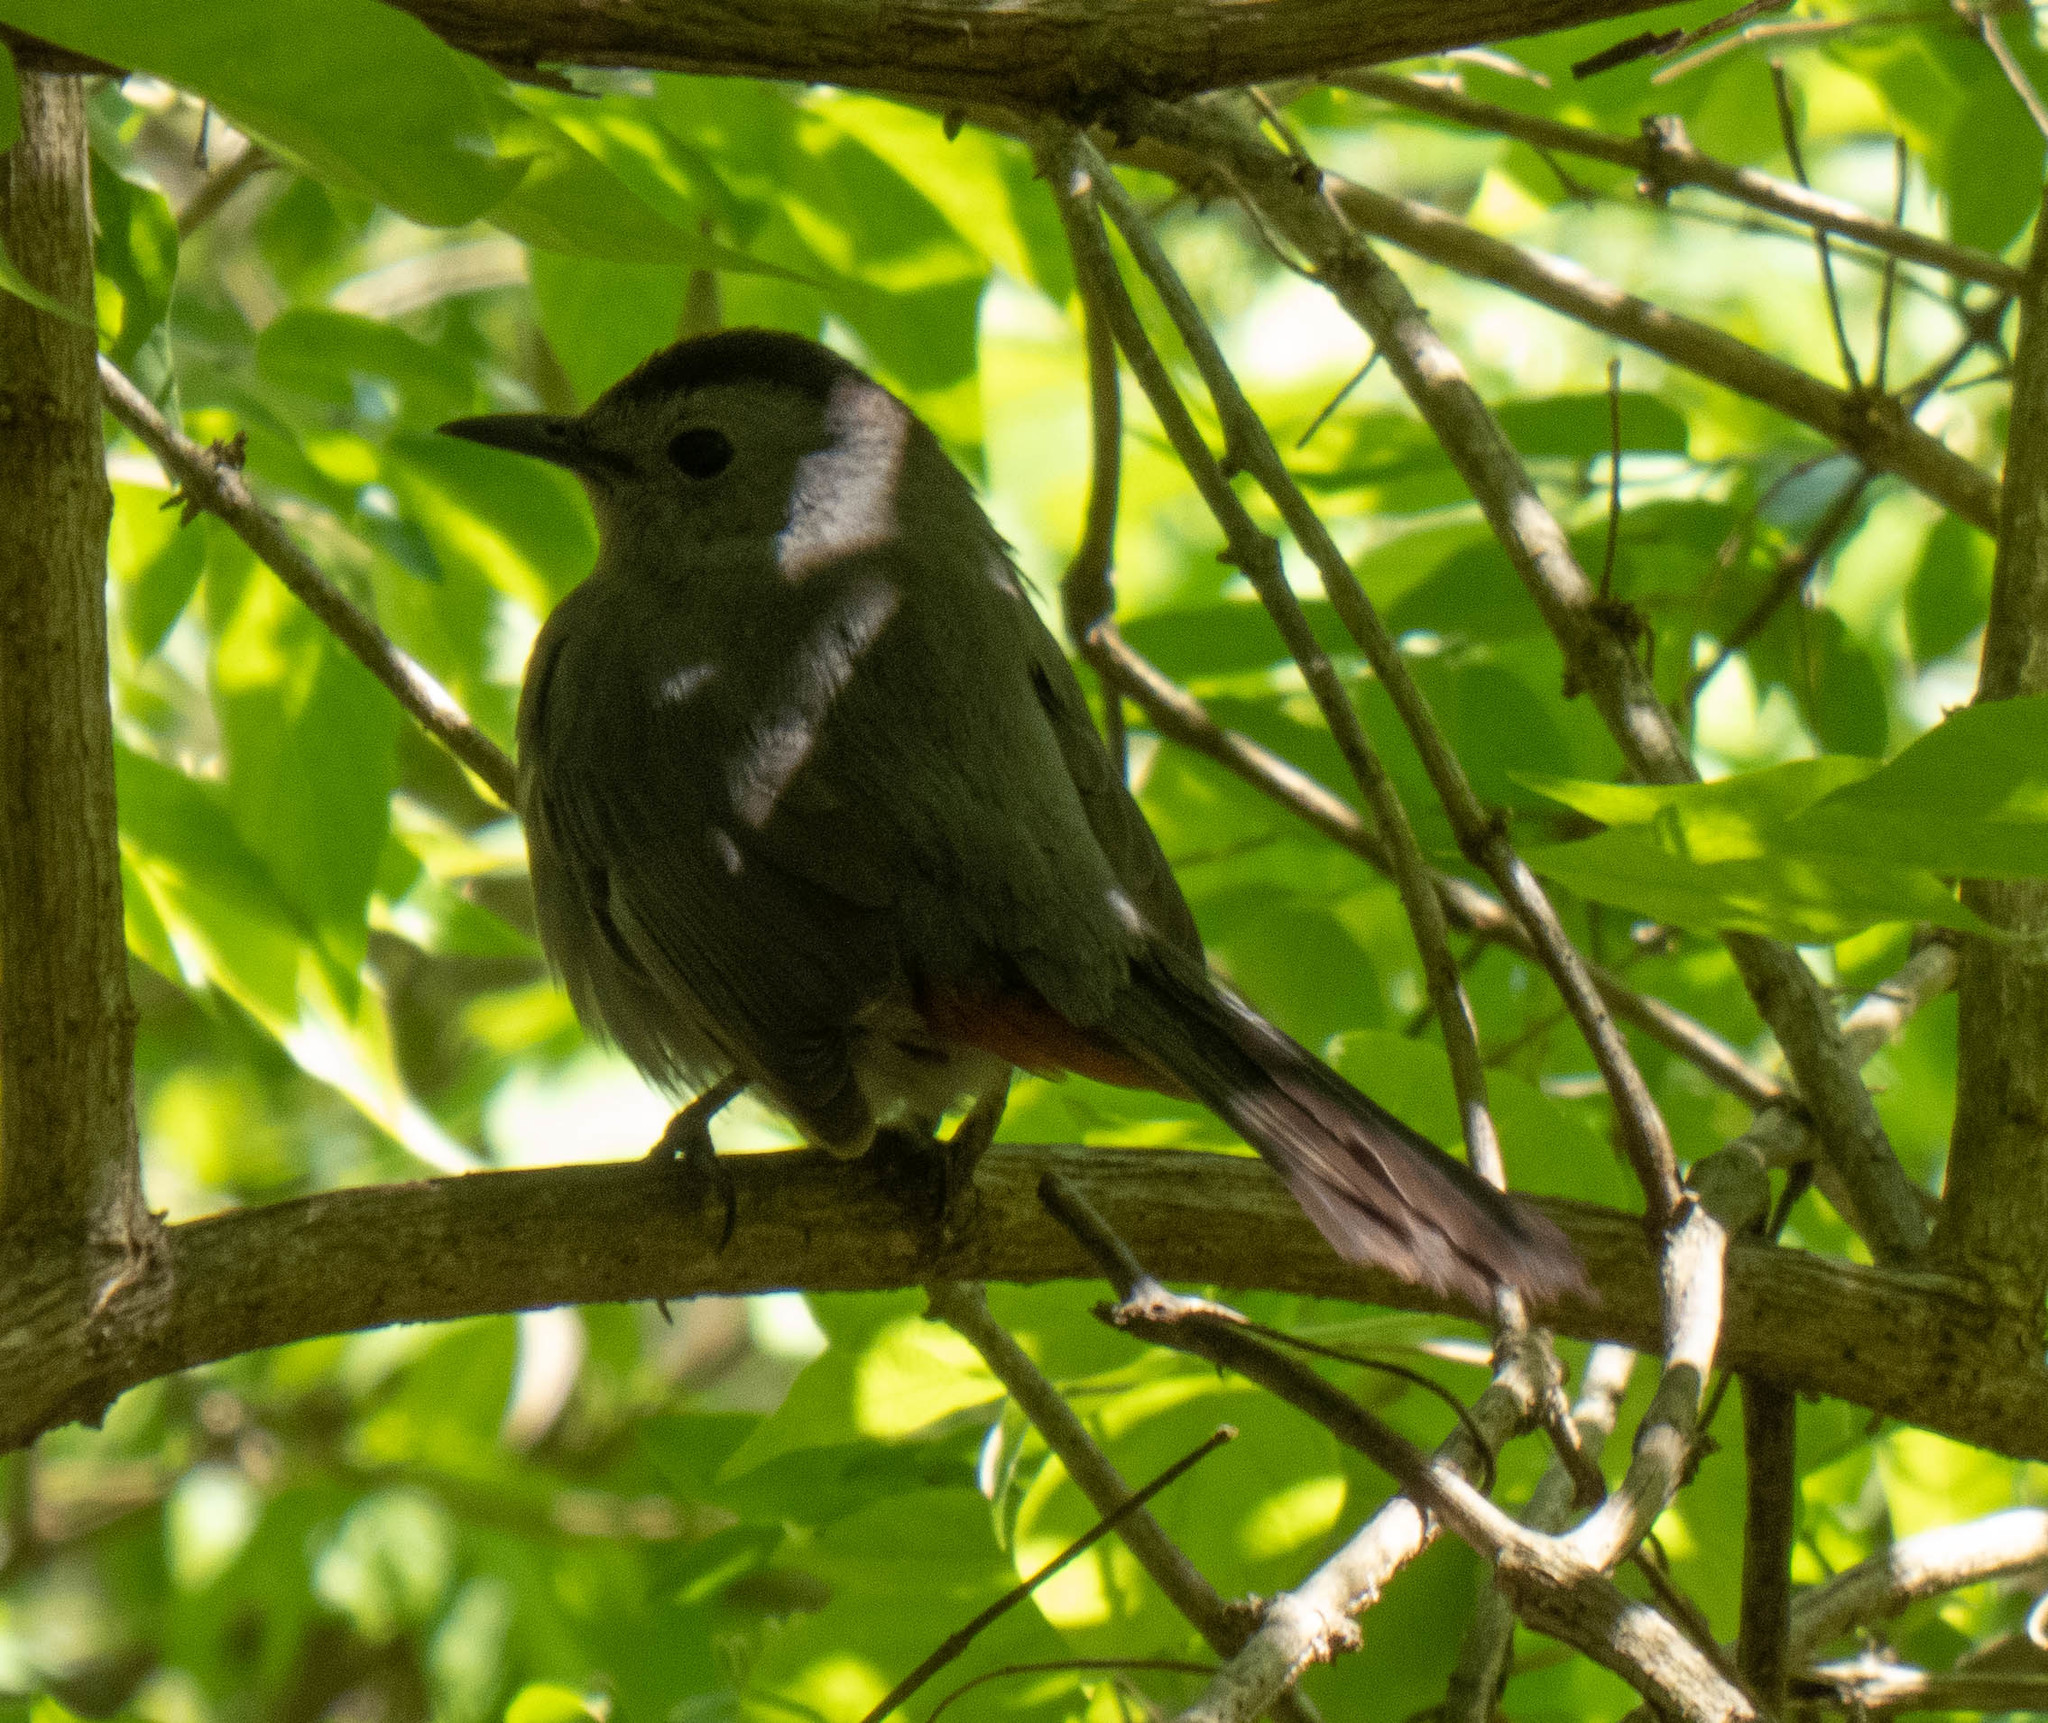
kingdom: Animalia
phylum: Chordata
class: Aves
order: Passeriformes
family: Mimidae
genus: Dumetella
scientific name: Dumetella carolinensis
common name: Gray catbird
